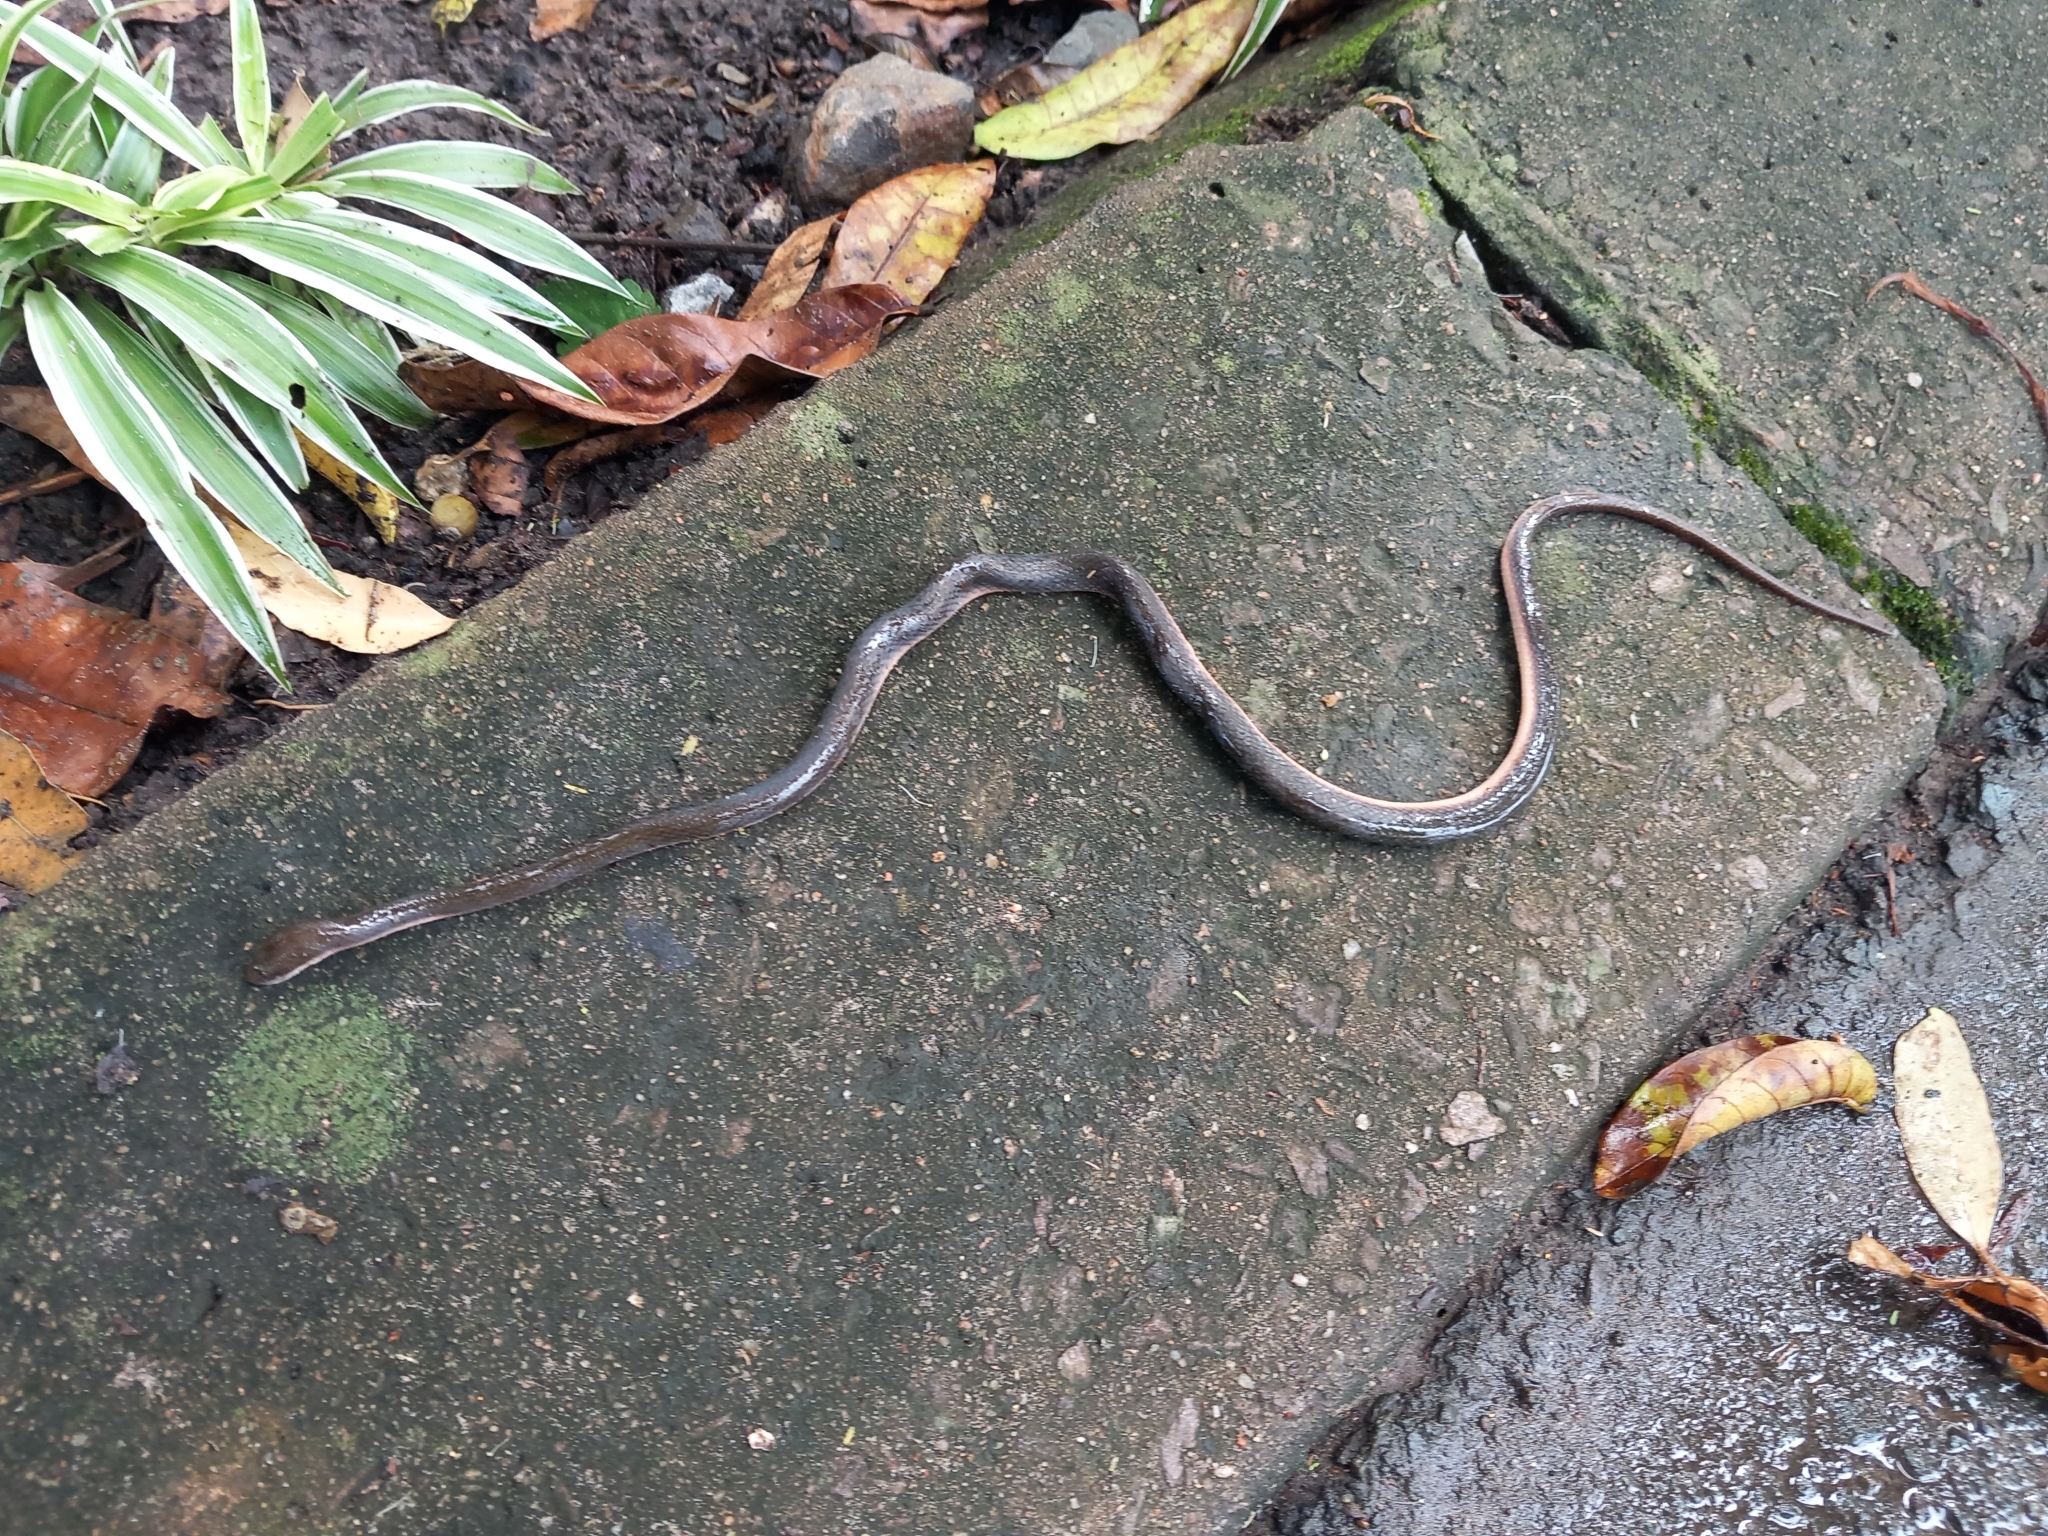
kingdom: Animalia
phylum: Chordata
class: Squamata
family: Lamprophiidae
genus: Lycodonomorphus
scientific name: Lycodonomorphus rufulus
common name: Brown water snake
